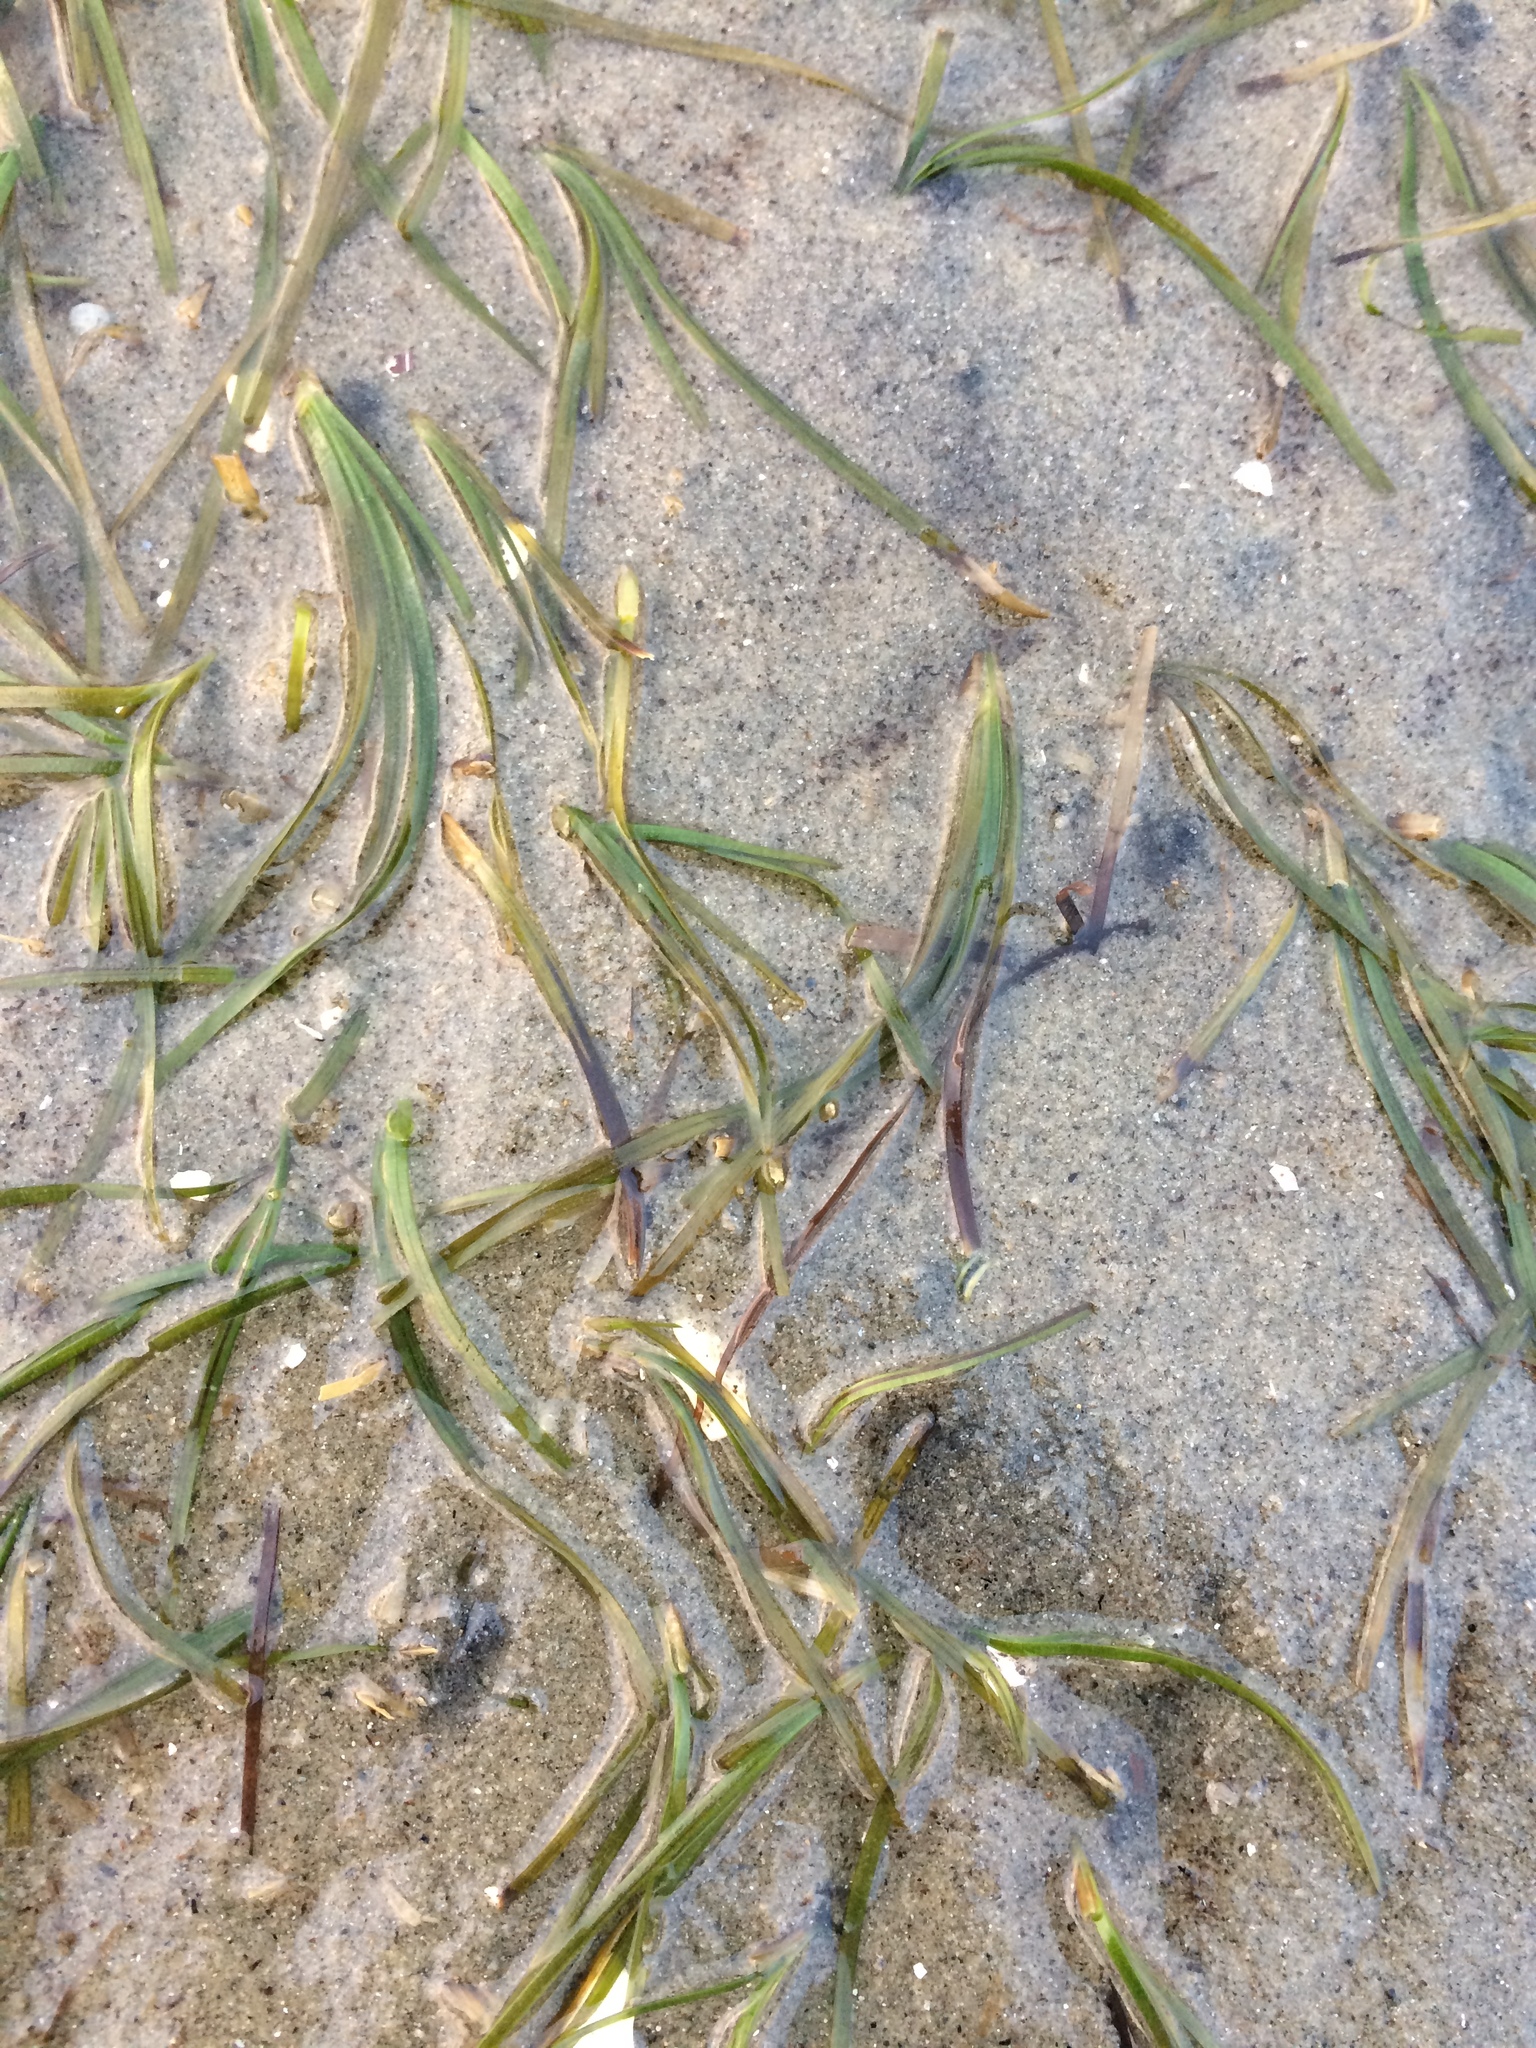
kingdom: Plantae
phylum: Tracheophyta
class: Liliopsida
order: Alismatales
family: Zosteraceae
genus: Zostera
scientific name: Zostera muelleri
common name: Species code: zc
